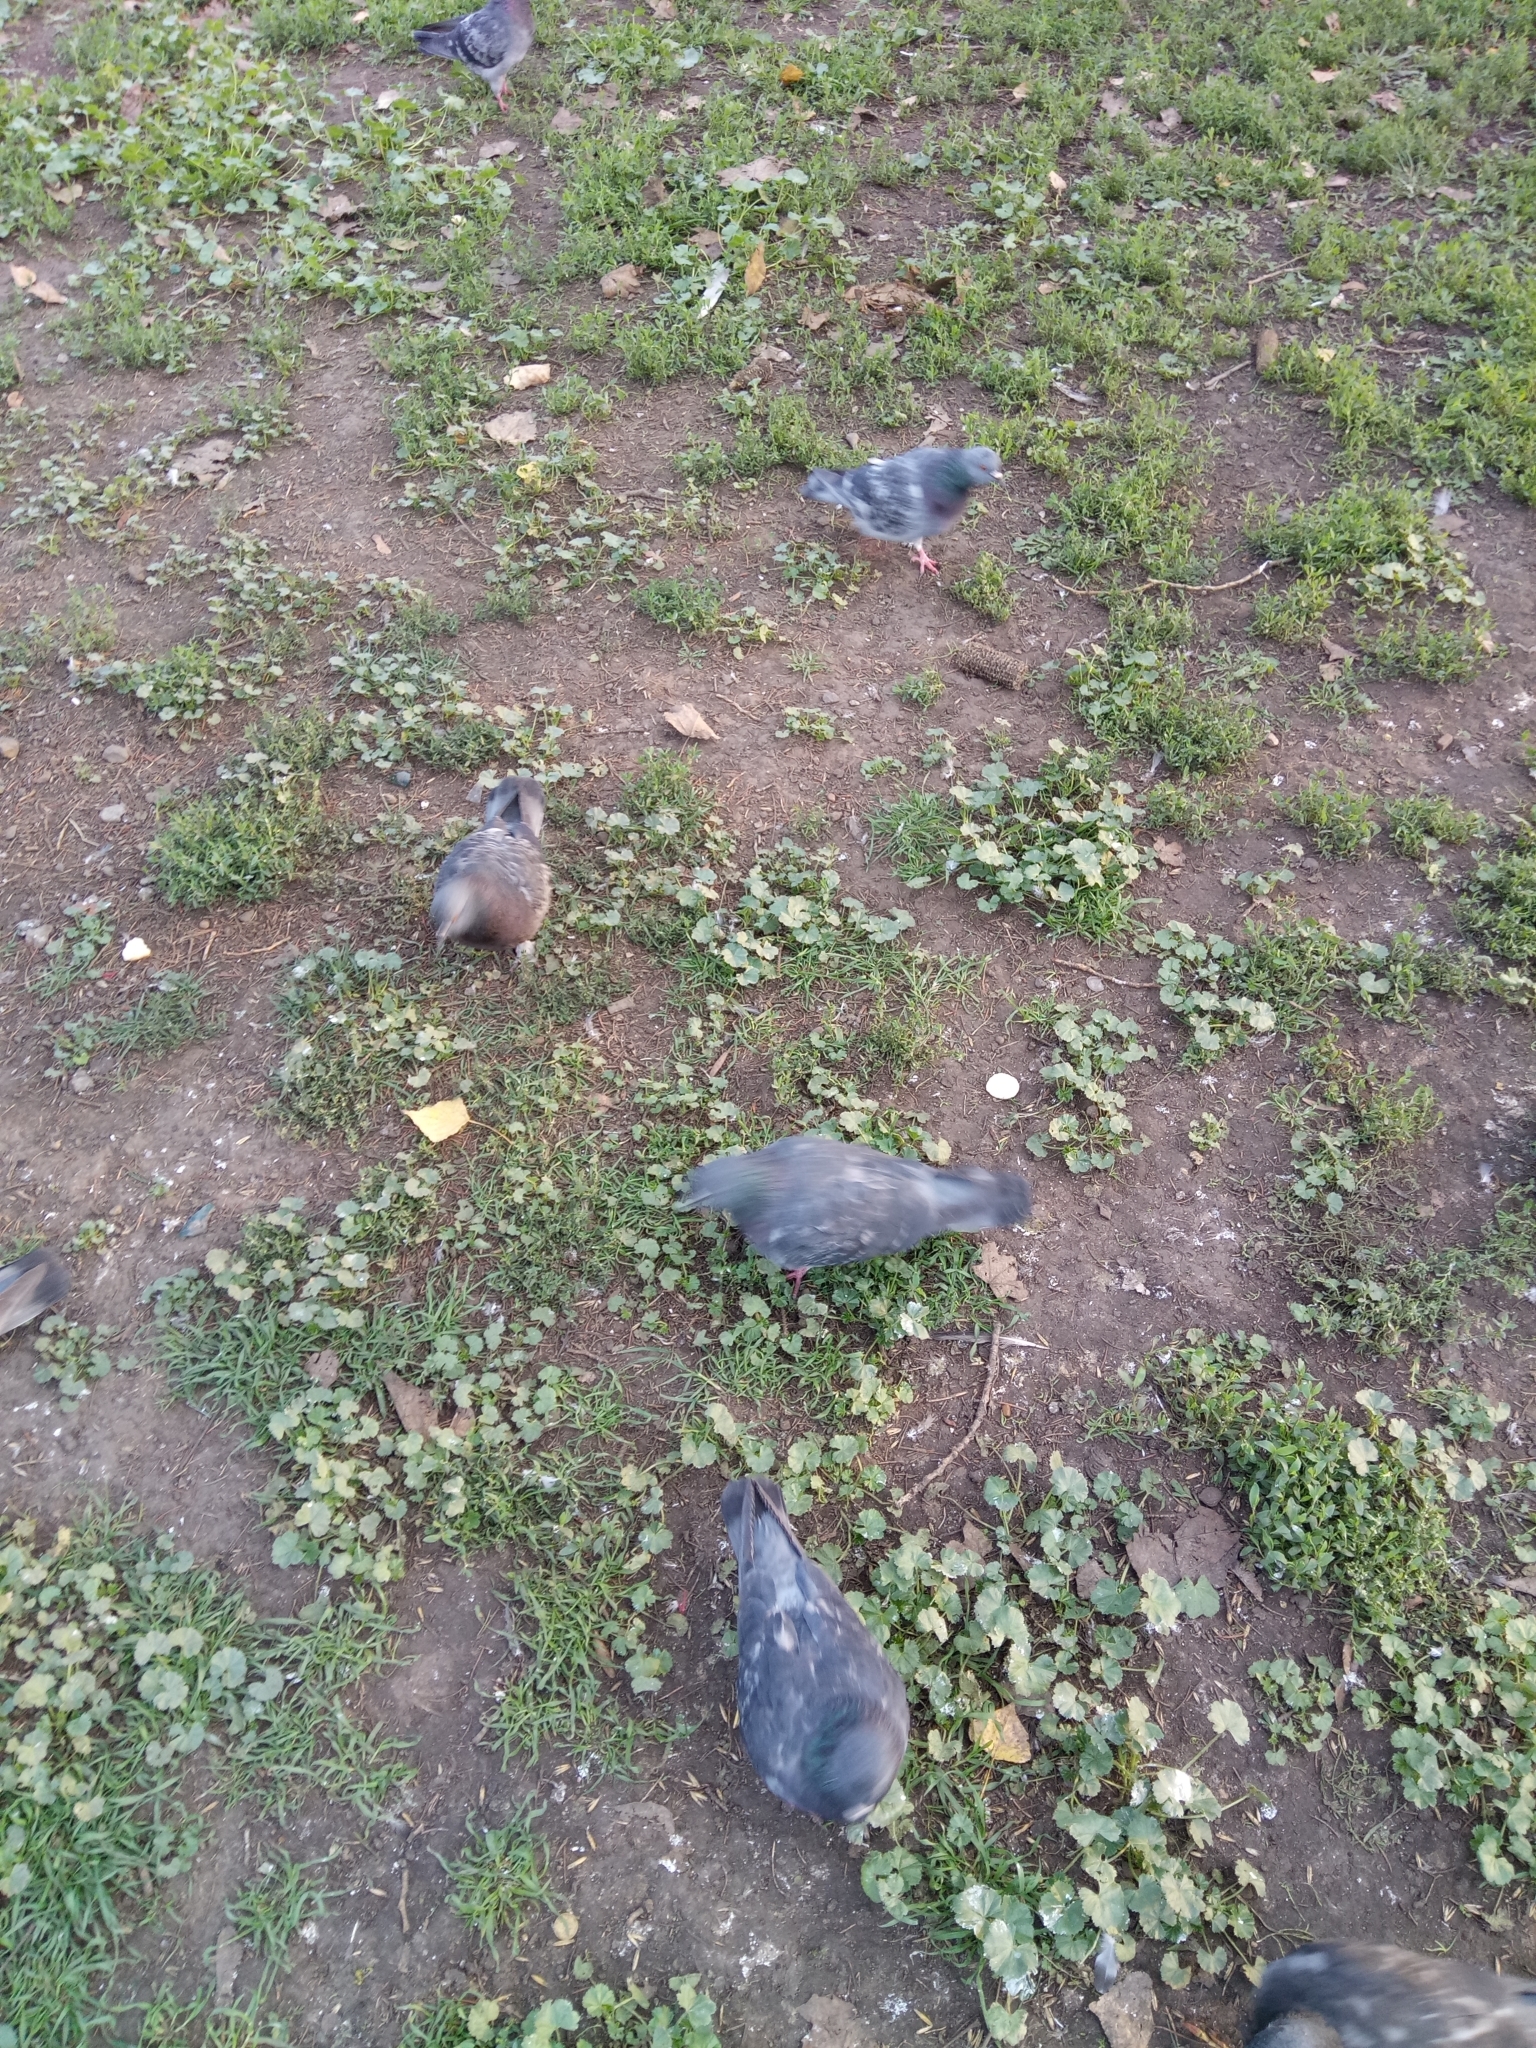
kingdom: Animalia
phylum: Chordata
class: Aves
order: Columbiformes
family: Columbidae
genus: Columba
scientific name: Columba livia
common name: Rock pigeon
